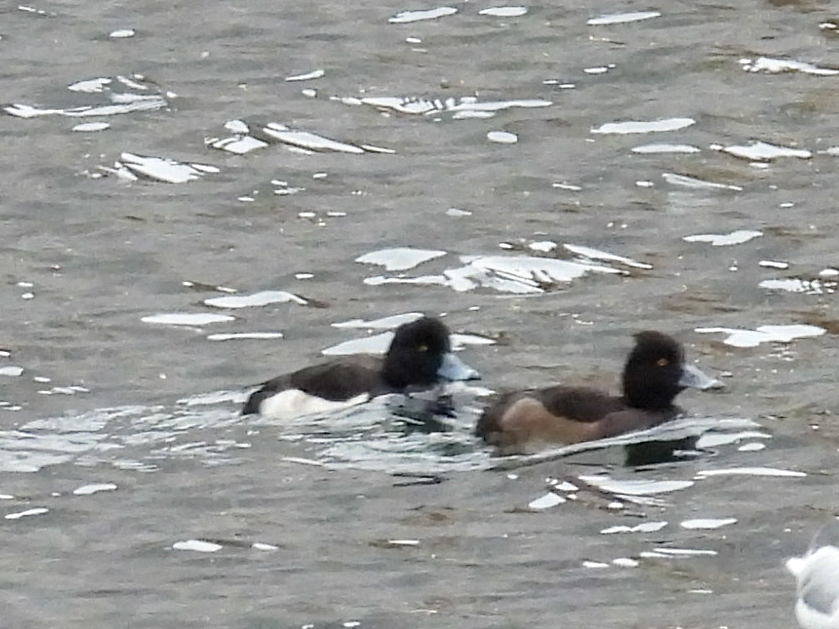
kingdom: Animalia
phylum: Chordata
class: Aves
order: Anseriformes
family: Anatidae
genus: Aythya
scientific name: Aythya fuligula
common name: Tufted duck
